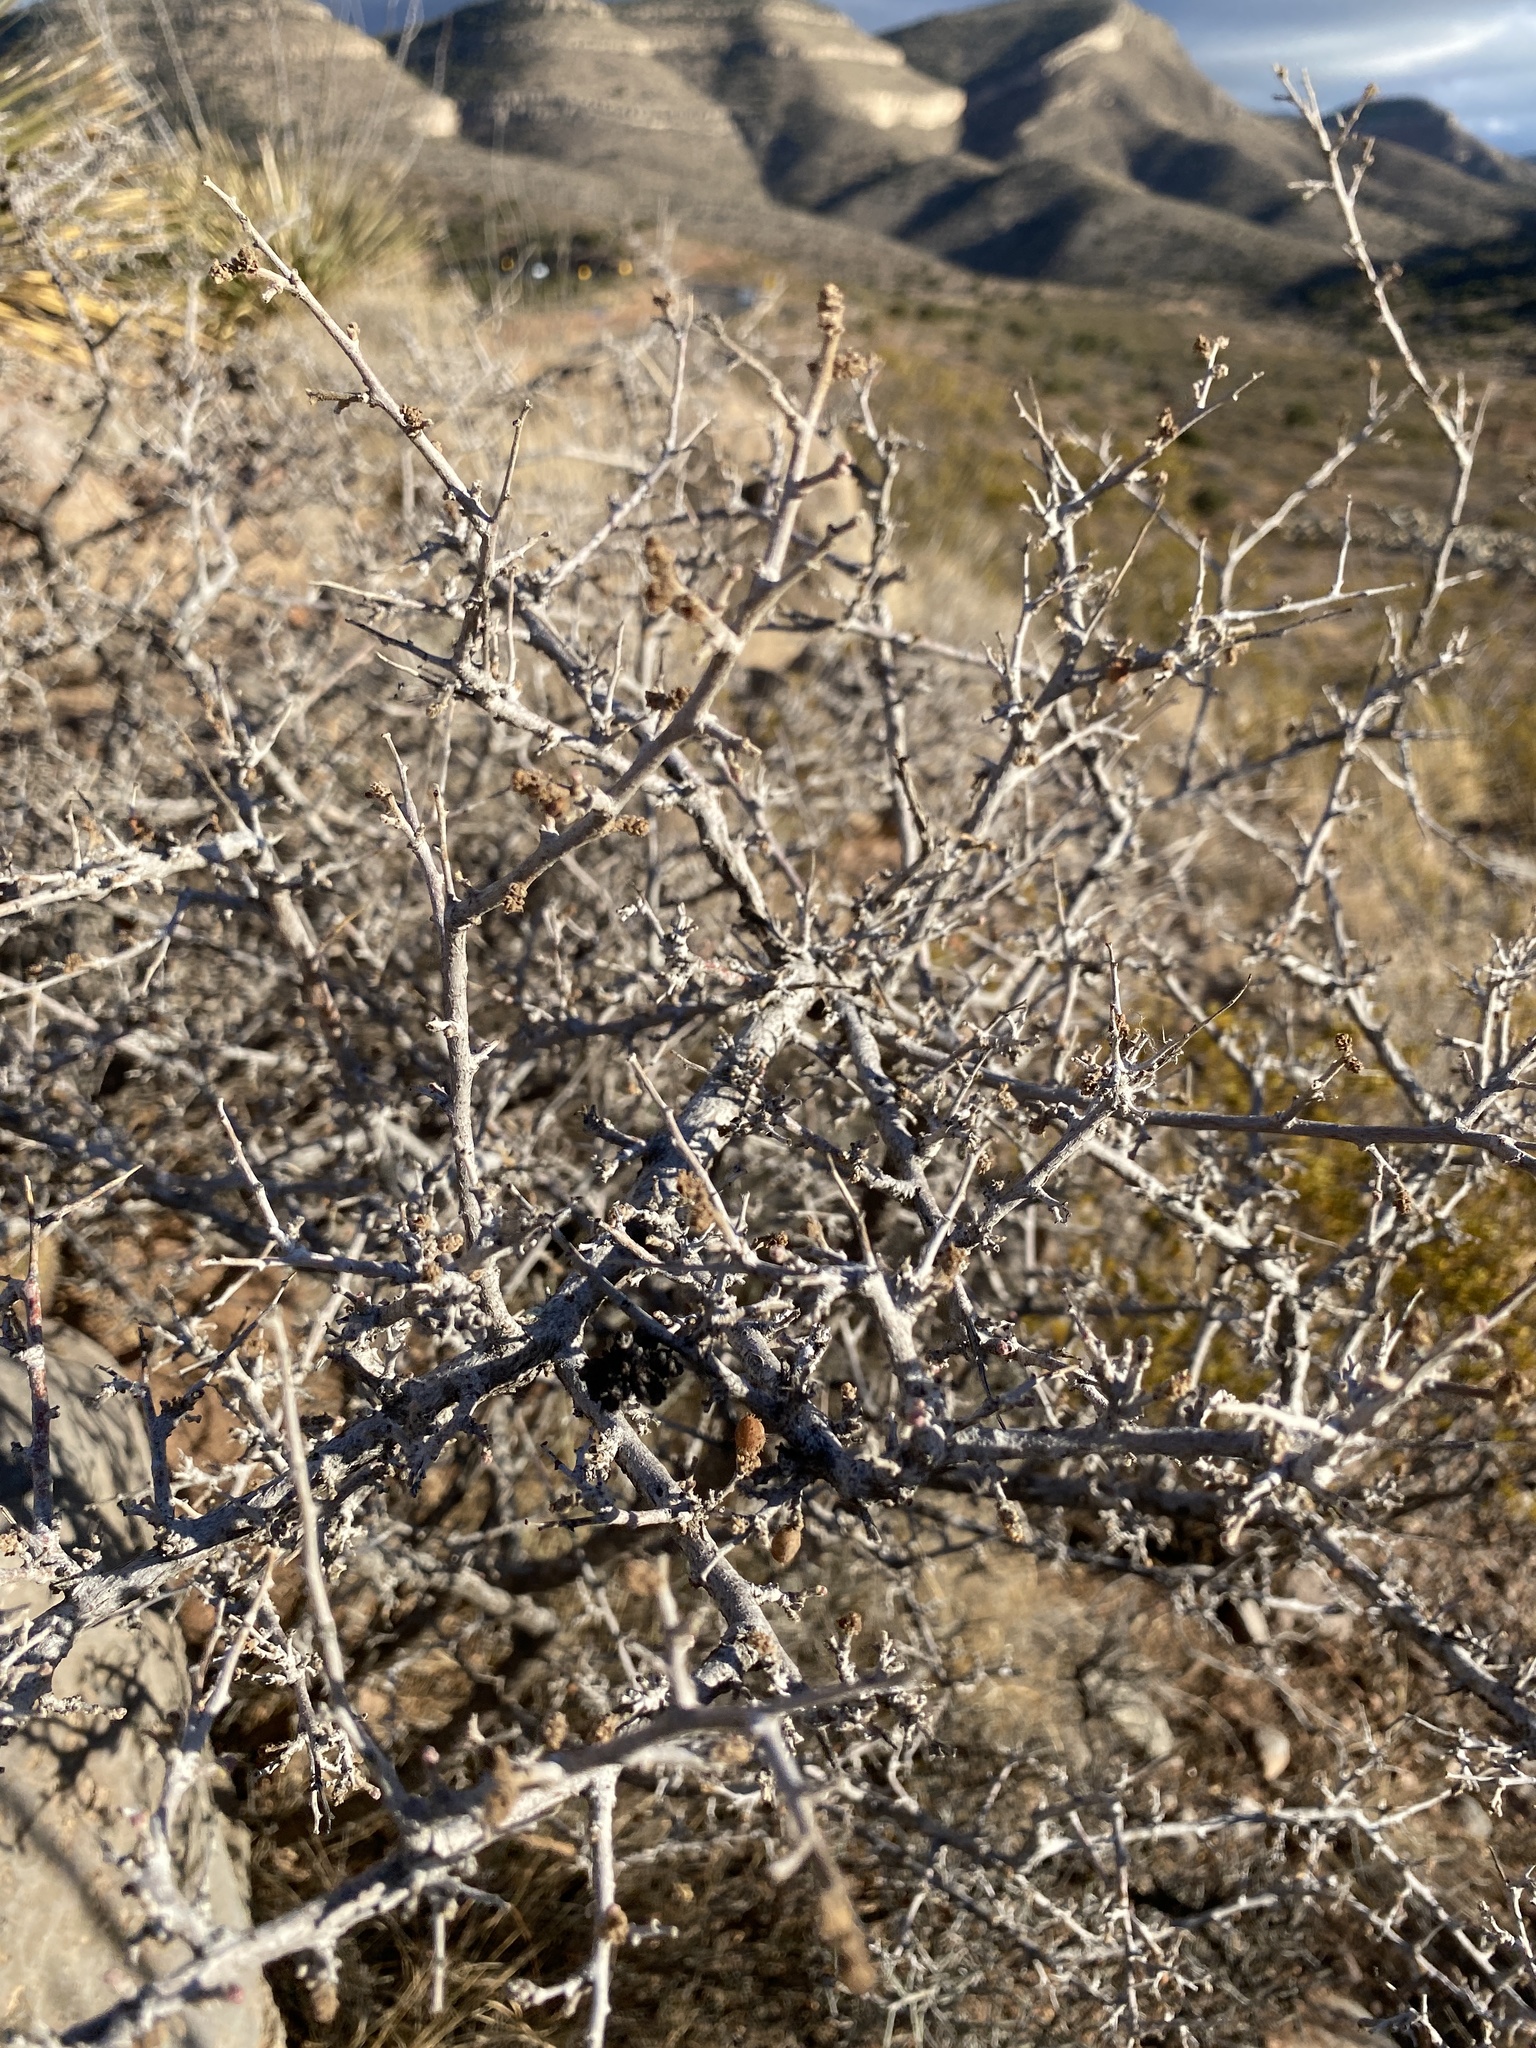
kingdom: Plantae
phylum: Tracheophyta
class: Magnoliopsida
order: Sapindales
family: Anacardiaceae
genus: Rhus
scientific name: Rhus microphylla
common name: Desert sumac
